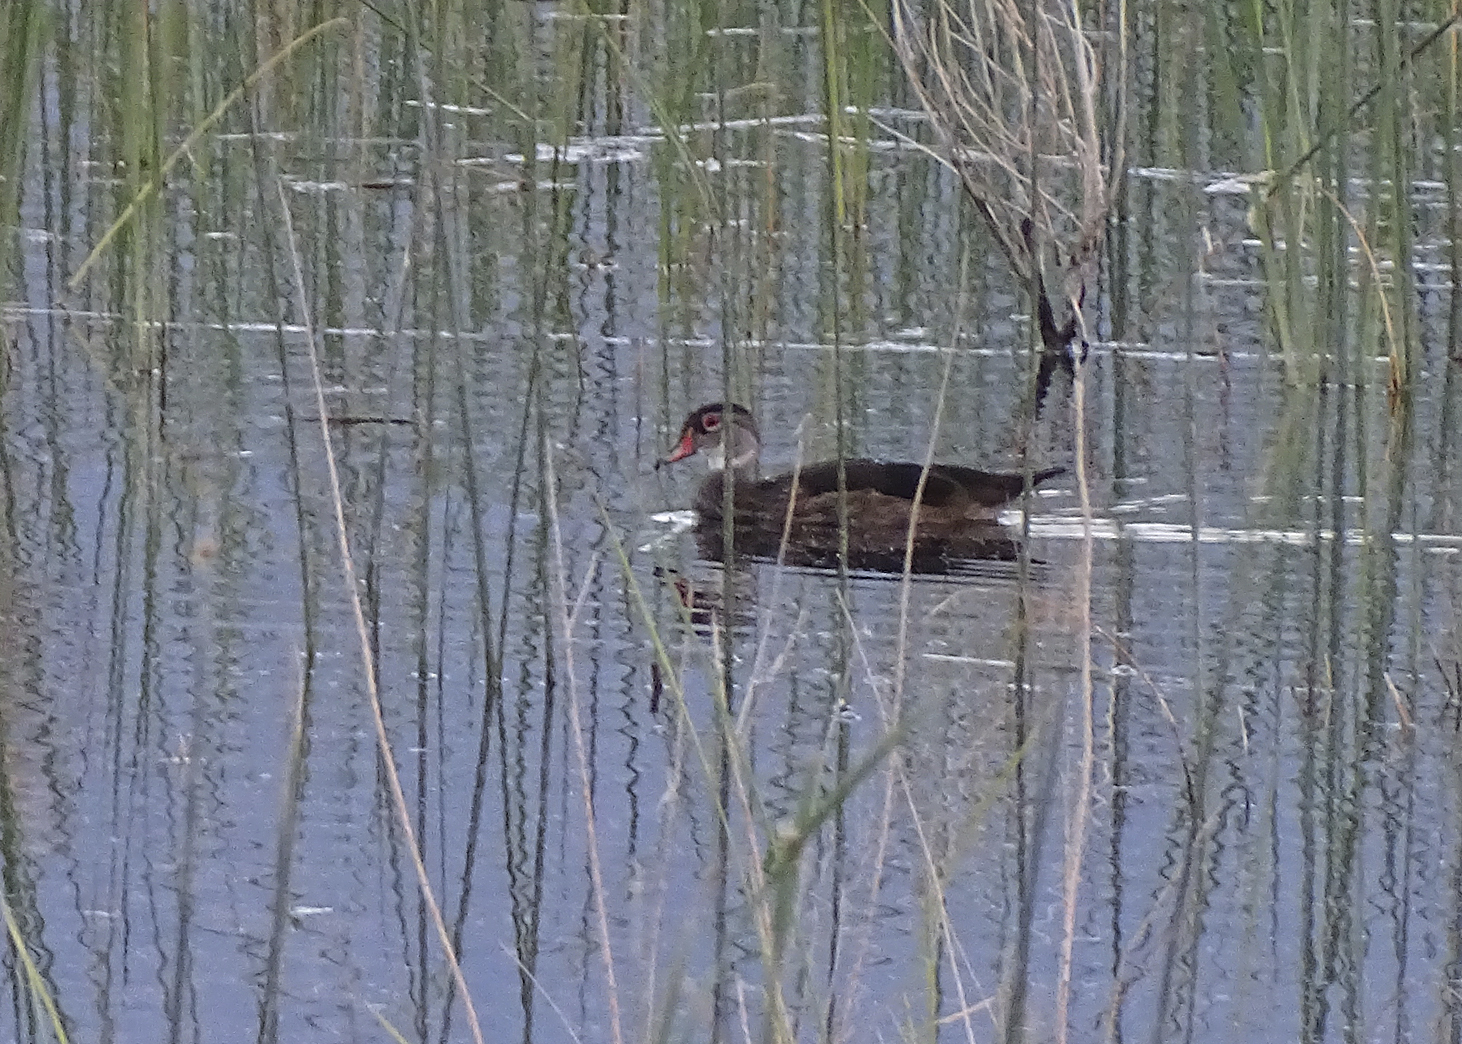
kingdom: Animalia
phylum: Chordata
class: Aves
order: Anseriformes
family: Anatidae
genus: Aix
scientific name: Aix sponsa
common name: Wood duck
